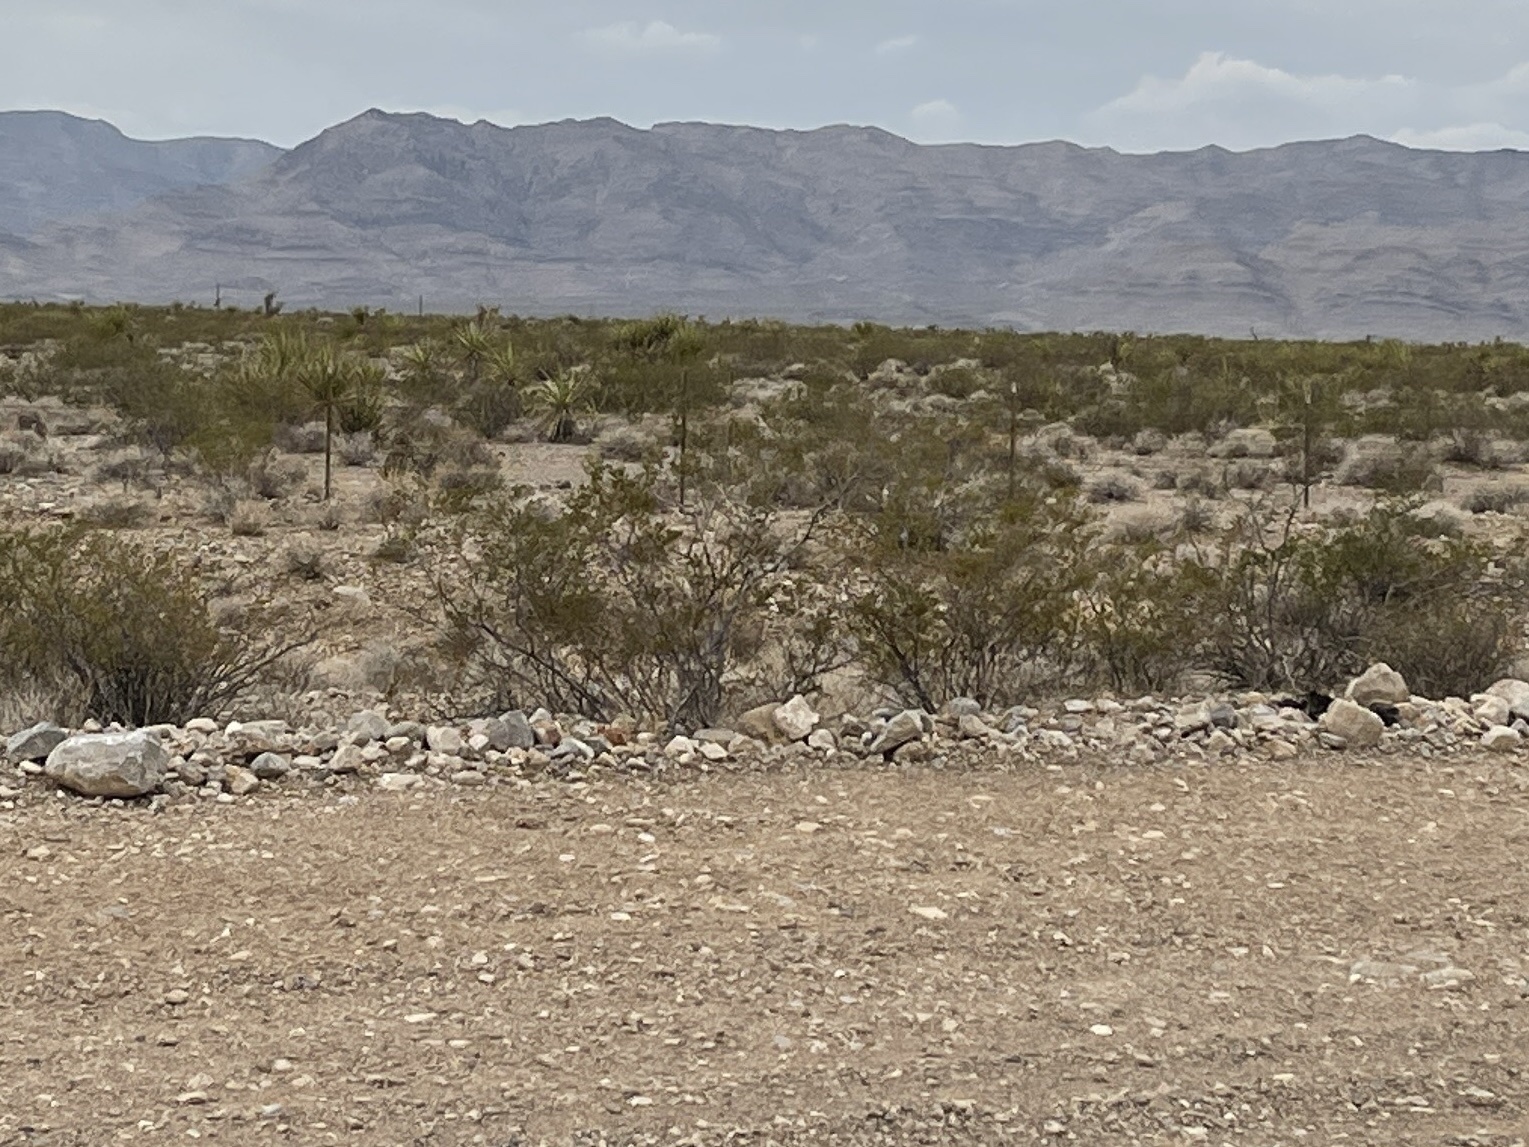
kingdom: Plantae
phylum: Tracheophyta
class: Magnoliopsida
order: Zygophyllales
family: Zygophyllaceae
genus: Larrea
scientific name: Larrea tridentata
